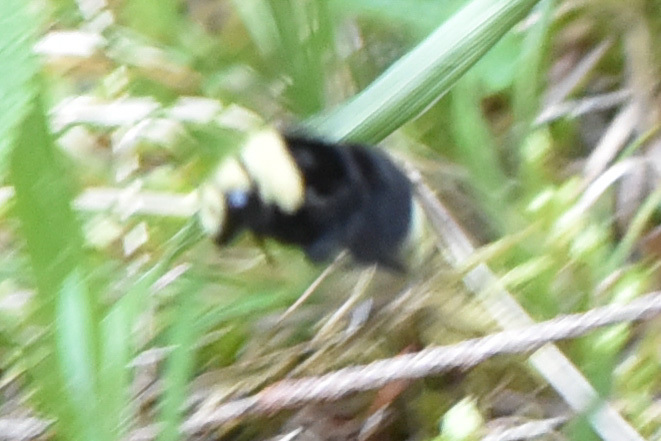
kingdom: Animalia
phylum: Arthropoda
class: Insecta
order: Hymenoptera
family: Apidae
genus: Bombus
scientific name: Bombus vosnesenskii
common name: Vosnesensky bumble bee
